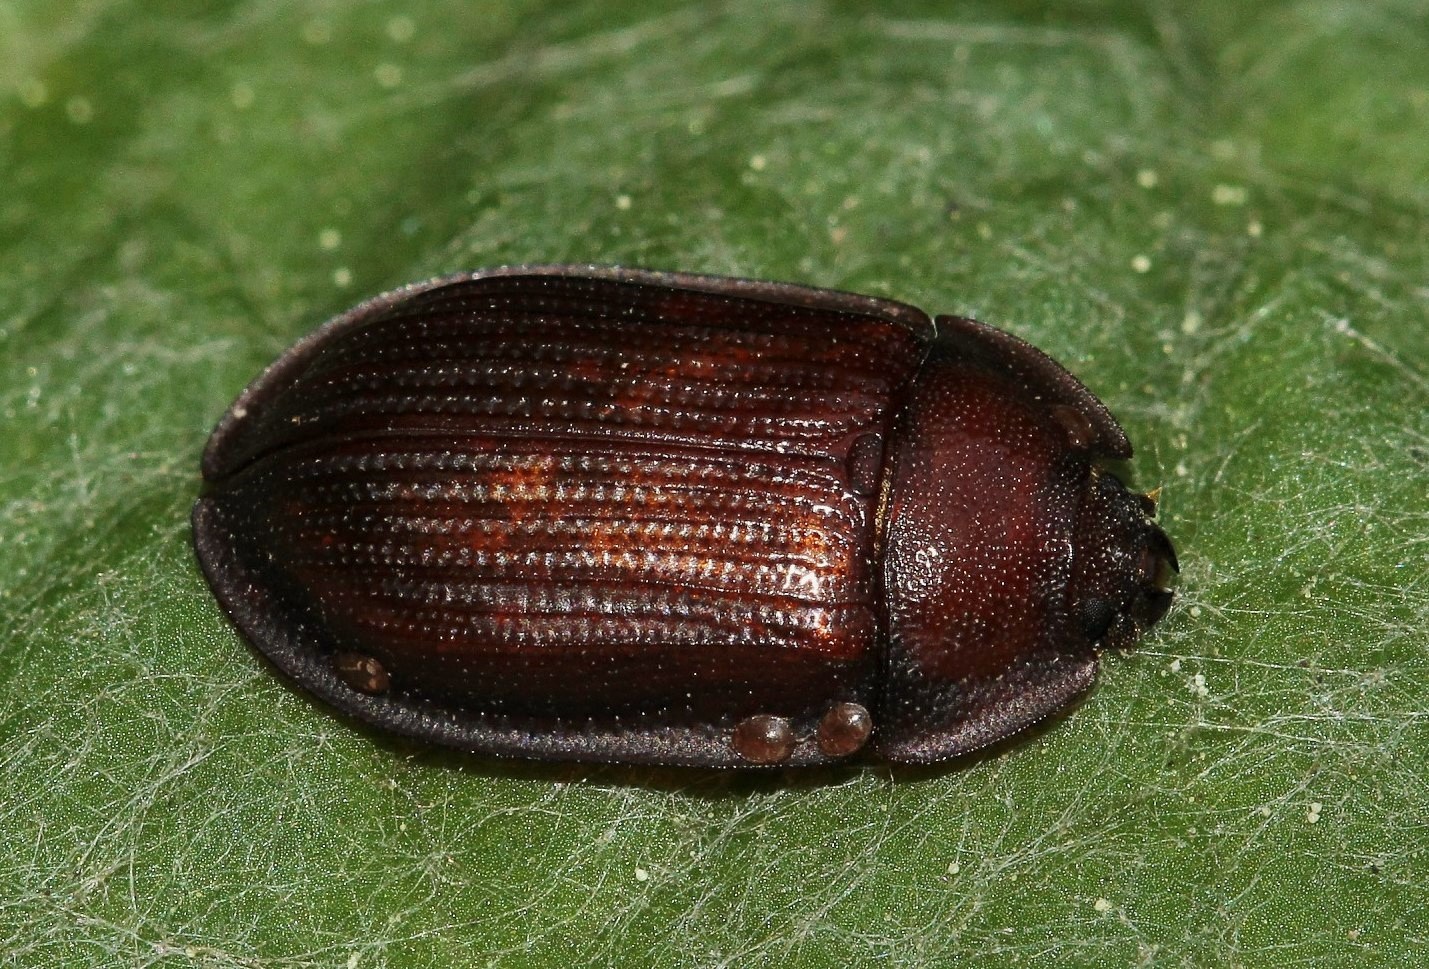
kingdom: Animalia
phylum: Arthropoda
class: Insecta
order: Coleoptera
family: Trogossitidae
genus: Peltis
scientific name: Peltis ferruginea
